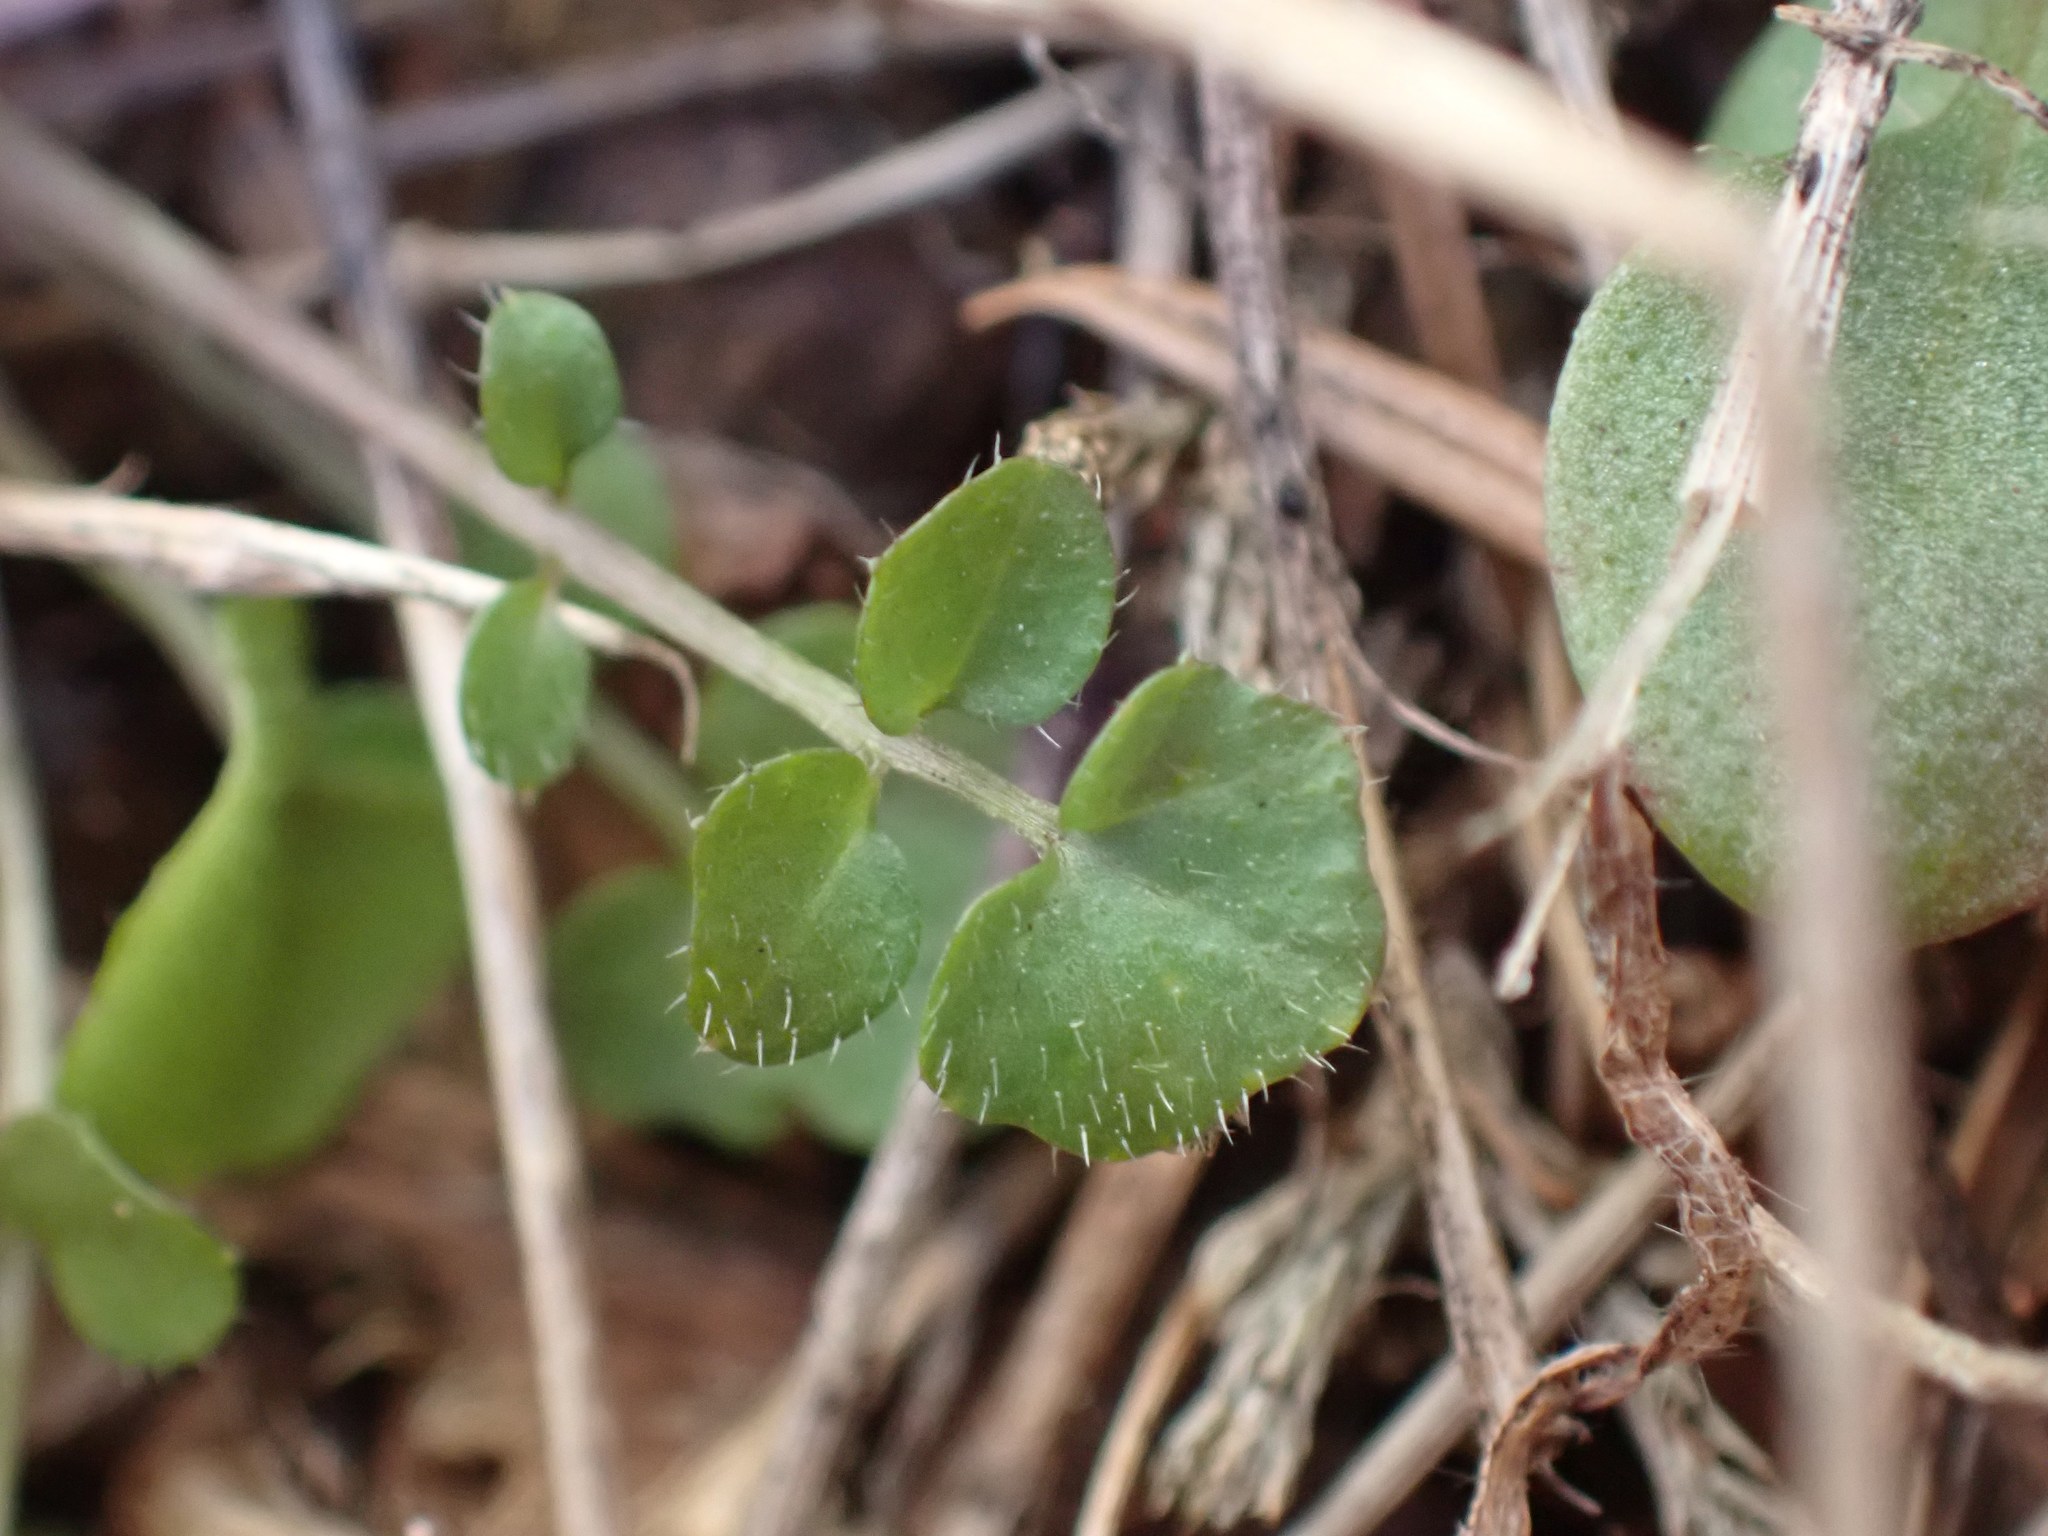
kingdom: Plantae
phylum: Tracheophyta
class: Magnoliopsida
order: Brassicales
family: Brassicaceae
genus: Cardamine
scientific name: Cardamine hirsuta
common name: Hairy bittercress
